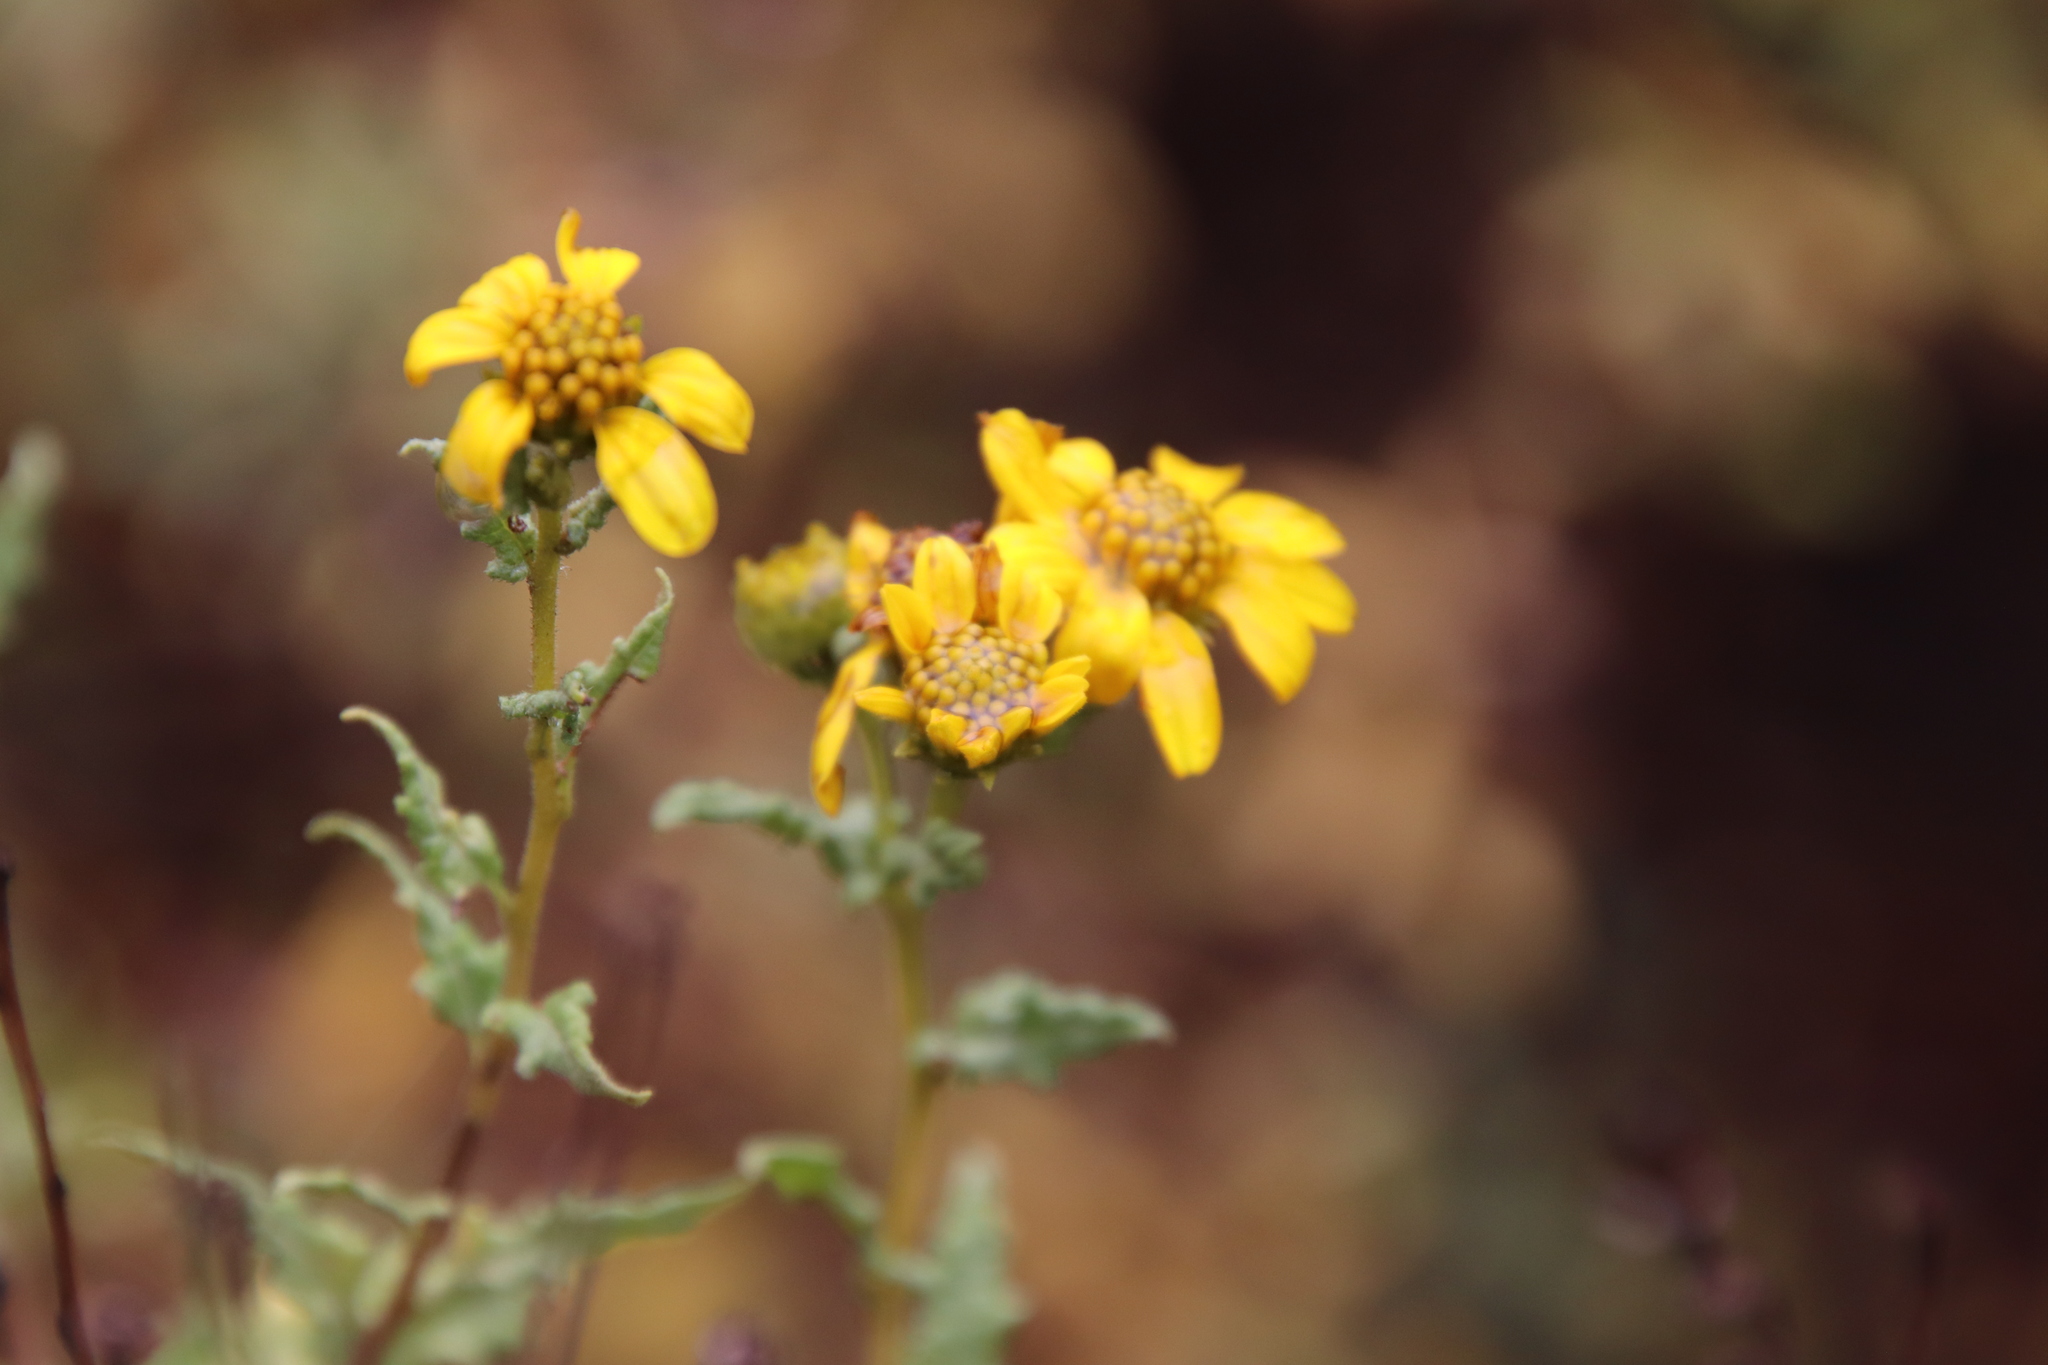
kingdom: Plantae
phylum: Tracheophyta
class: Magnoliopsida
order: Asterales
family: Asteraceae
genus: Bahiopsis
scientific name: Bahiopsis laciniata
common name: San diego county viguiera
